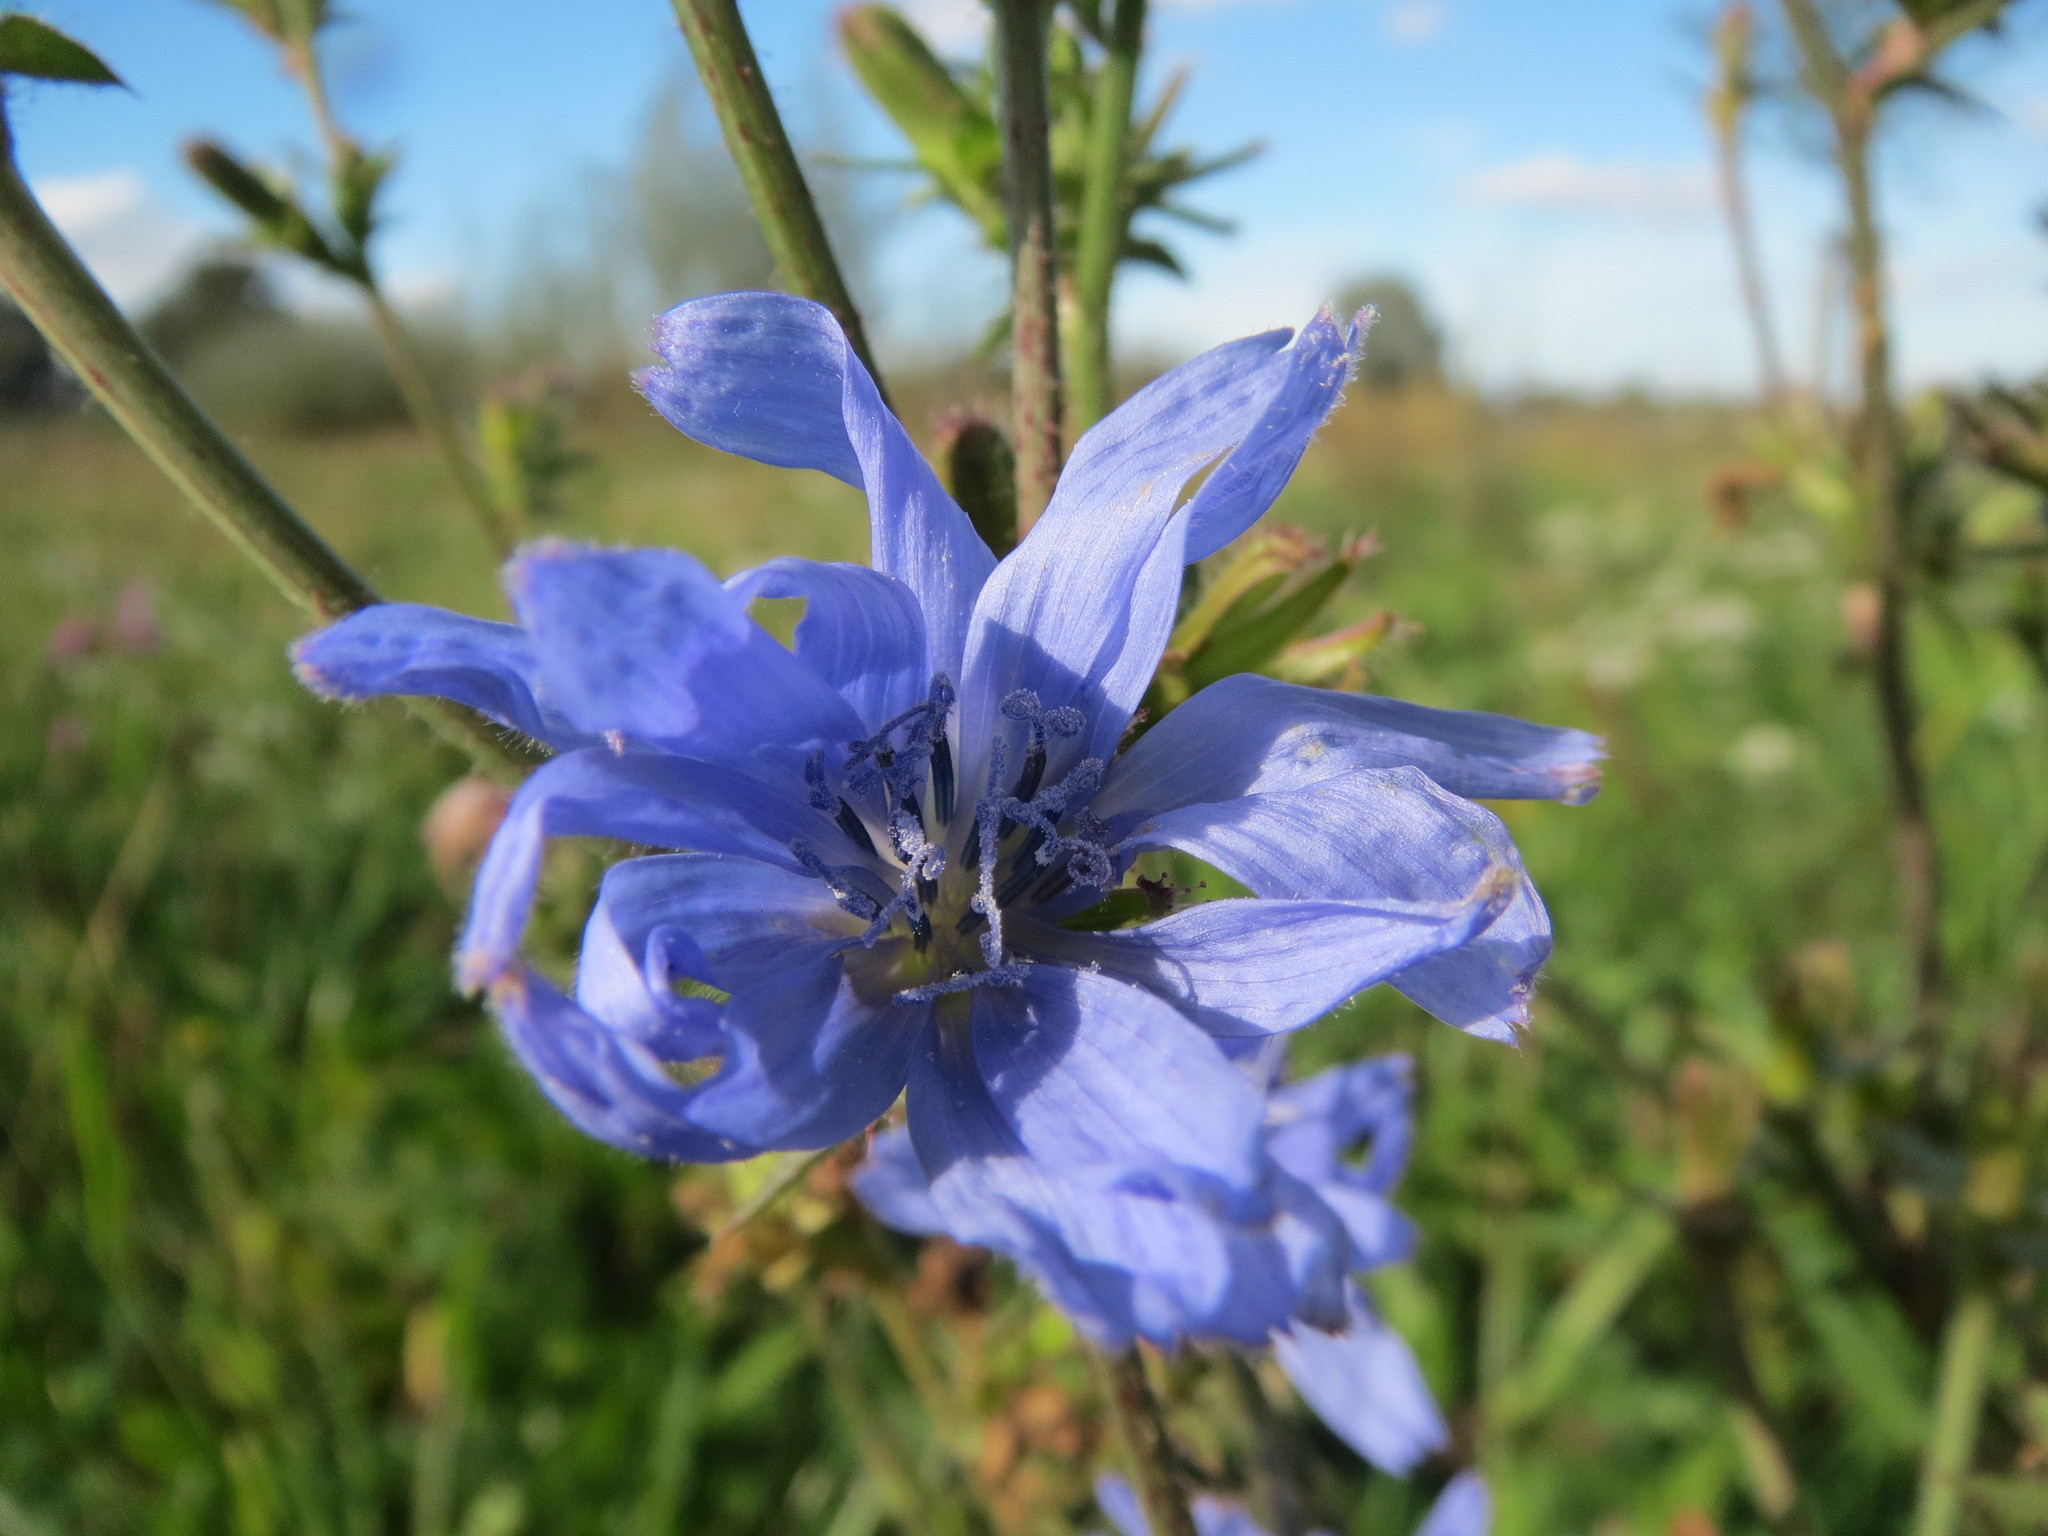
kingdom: Plantae
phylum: Tracheophyta
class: Magnoliopsida
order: Asterales
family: Asteraceae
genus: Cichorium
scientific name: Cichorium intybus
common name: Chicory
